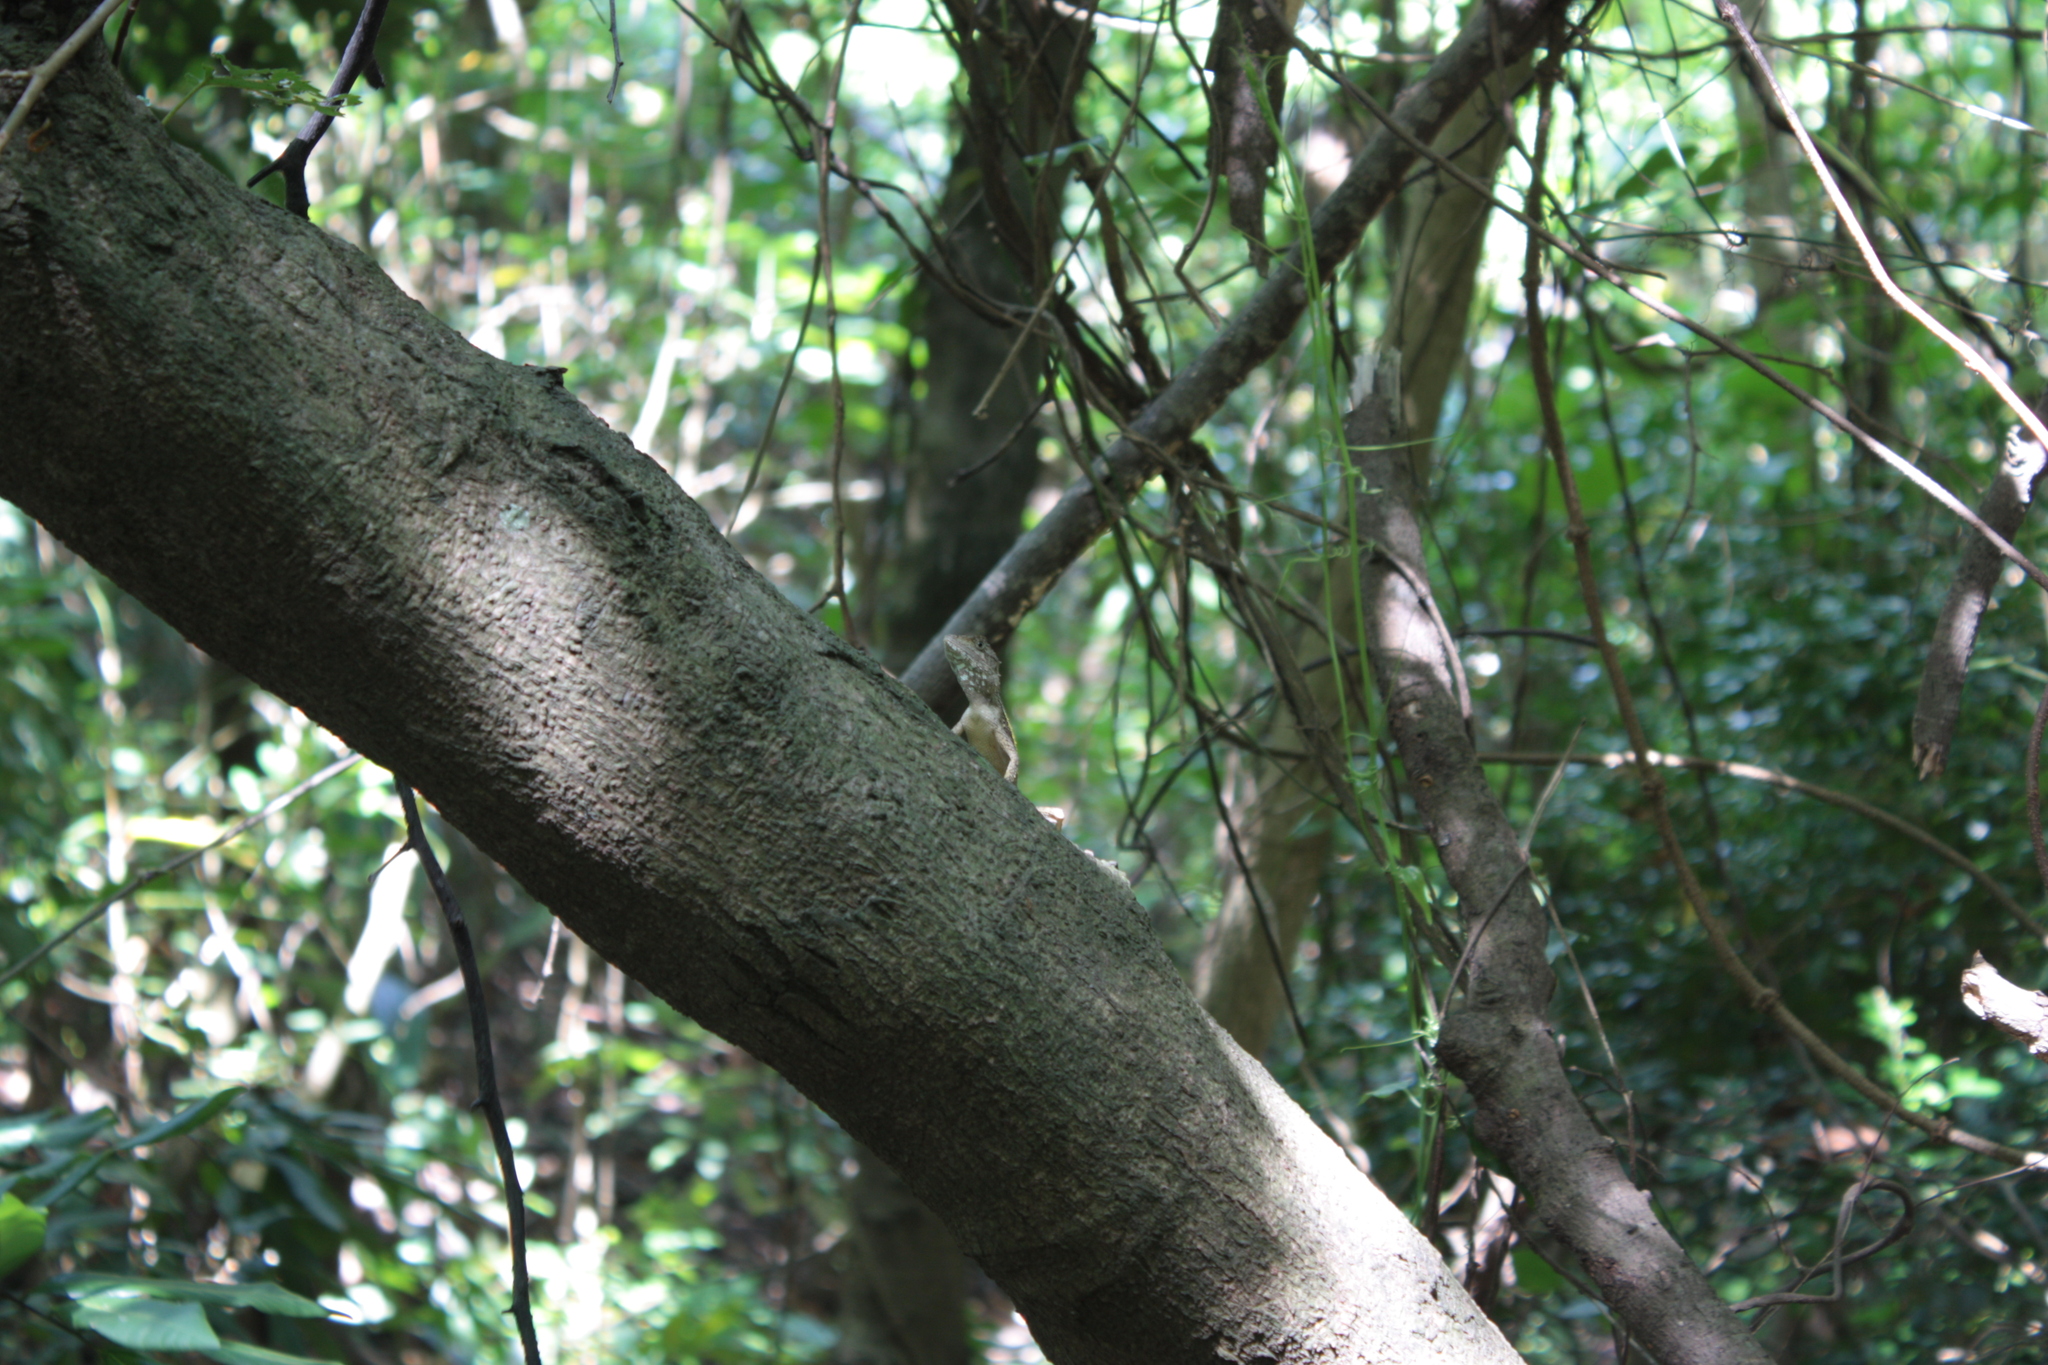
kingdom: Animalia
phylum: Chordata
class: Squamata
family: Agamidae
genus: Diploderma
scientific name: Diploderma swinhonis
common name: Taiwan japalure
